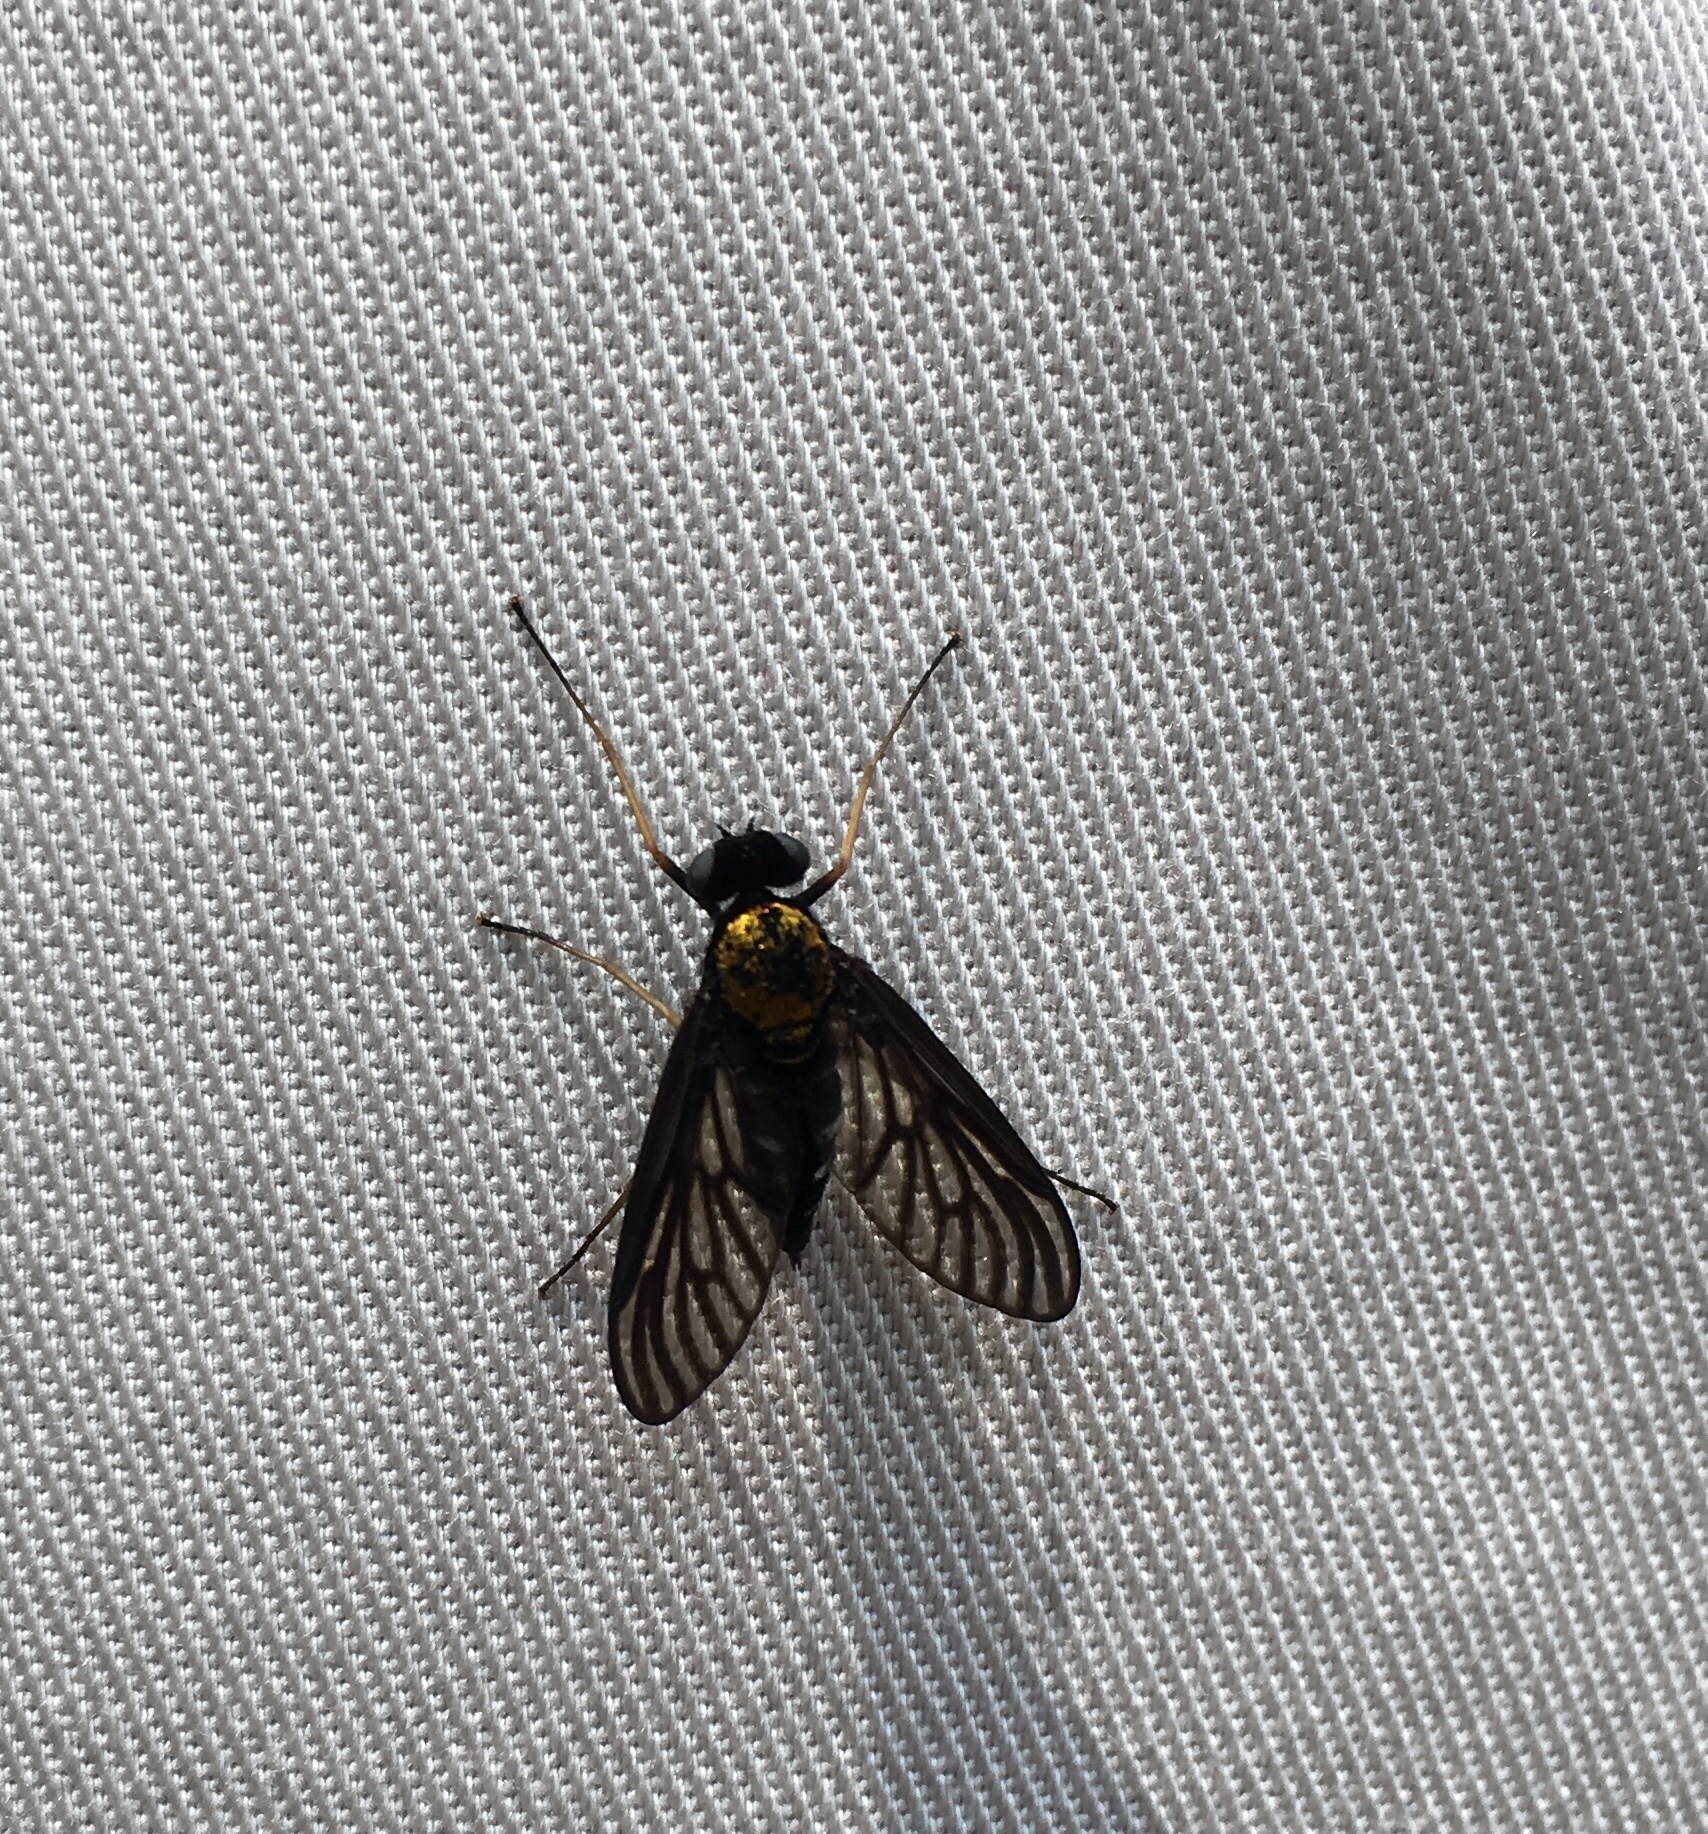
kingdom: Animalia
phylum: Arthropoda
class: Insecta
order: Diptera
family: Rhagionidae
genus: Chrysopilus
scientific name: Chrysopilus thoracicus
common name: Golden-backed snipe fly
